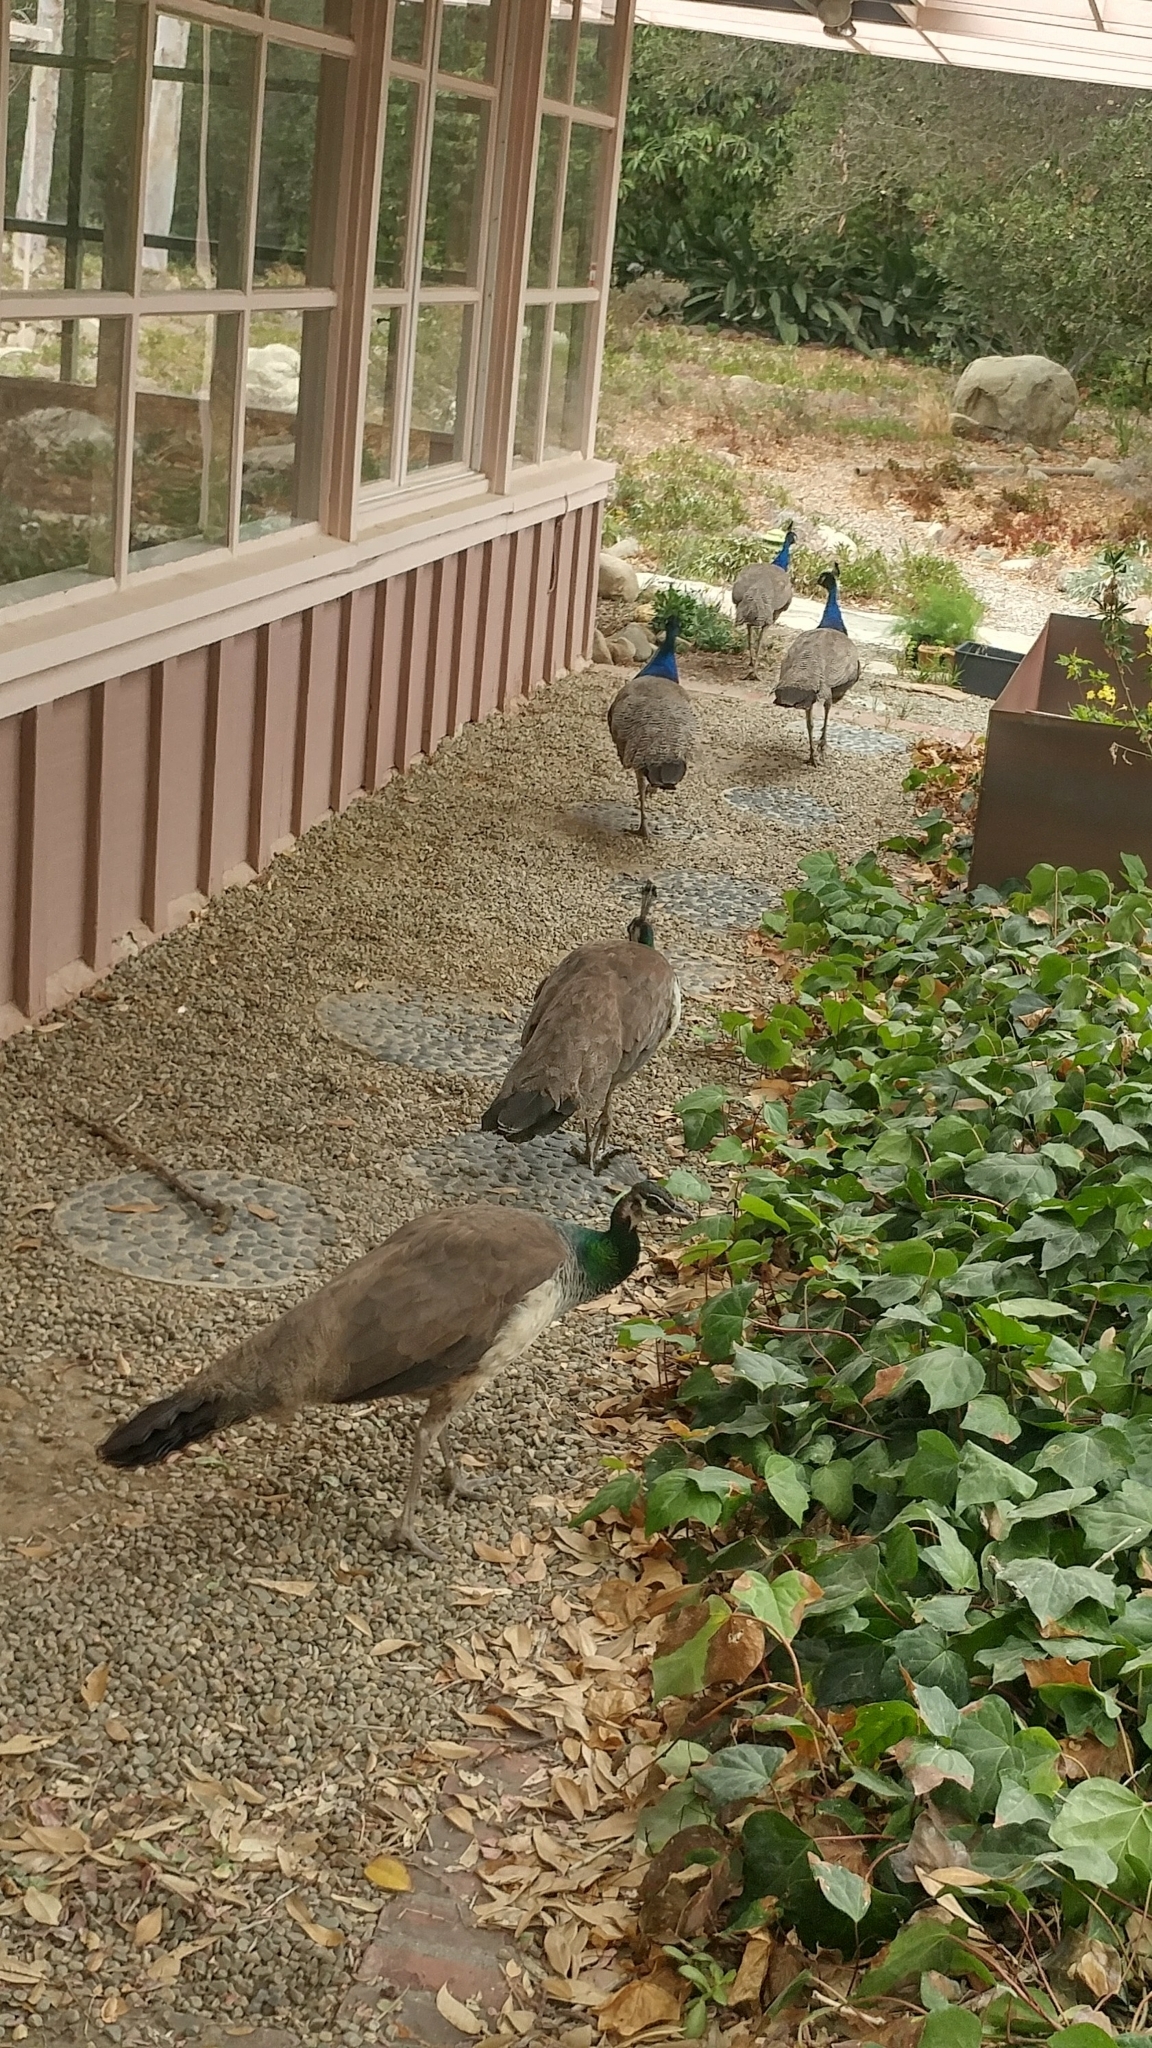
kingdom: Animalia
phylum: Chordata
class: Aves
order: Galliformes
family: Phasianidae
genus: Pavo
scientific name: Pavo cristatus
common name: Indian peafowl
